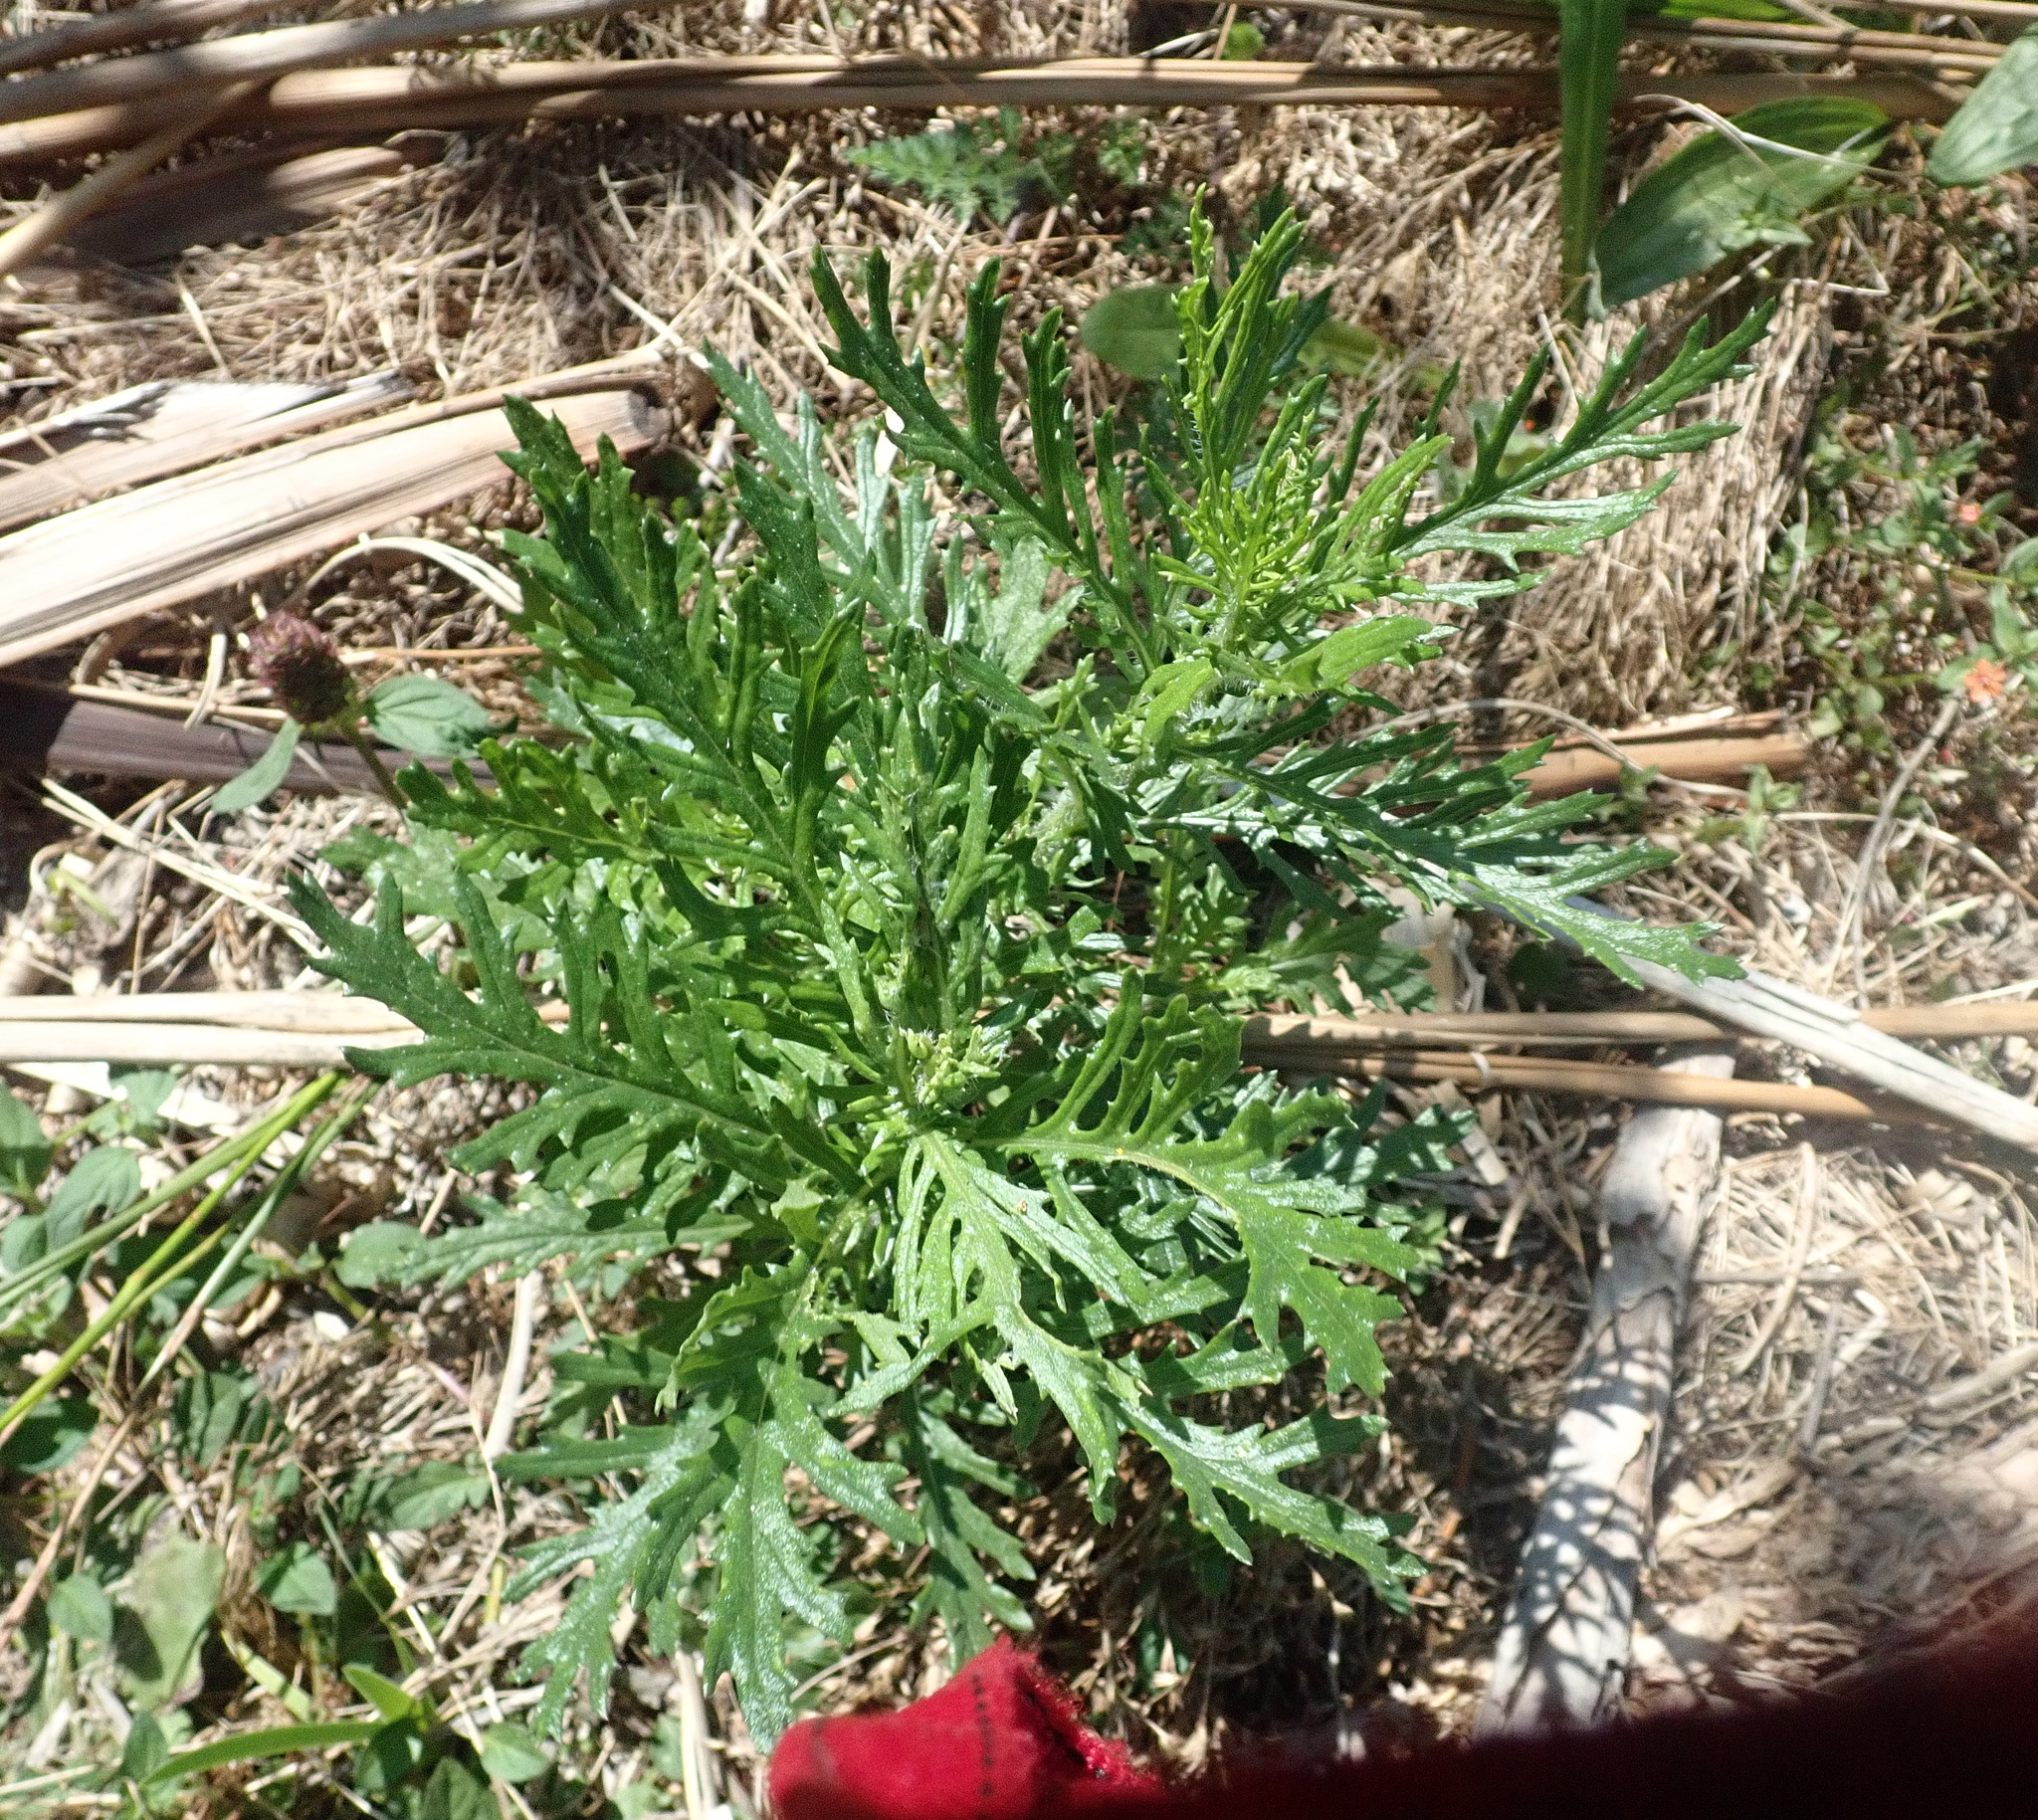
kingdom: Plantae
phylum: Tracheophyta
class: Magnoliopsida
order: Asterales
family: Asteraceae
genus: Senecio
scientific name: Senecio esleri
